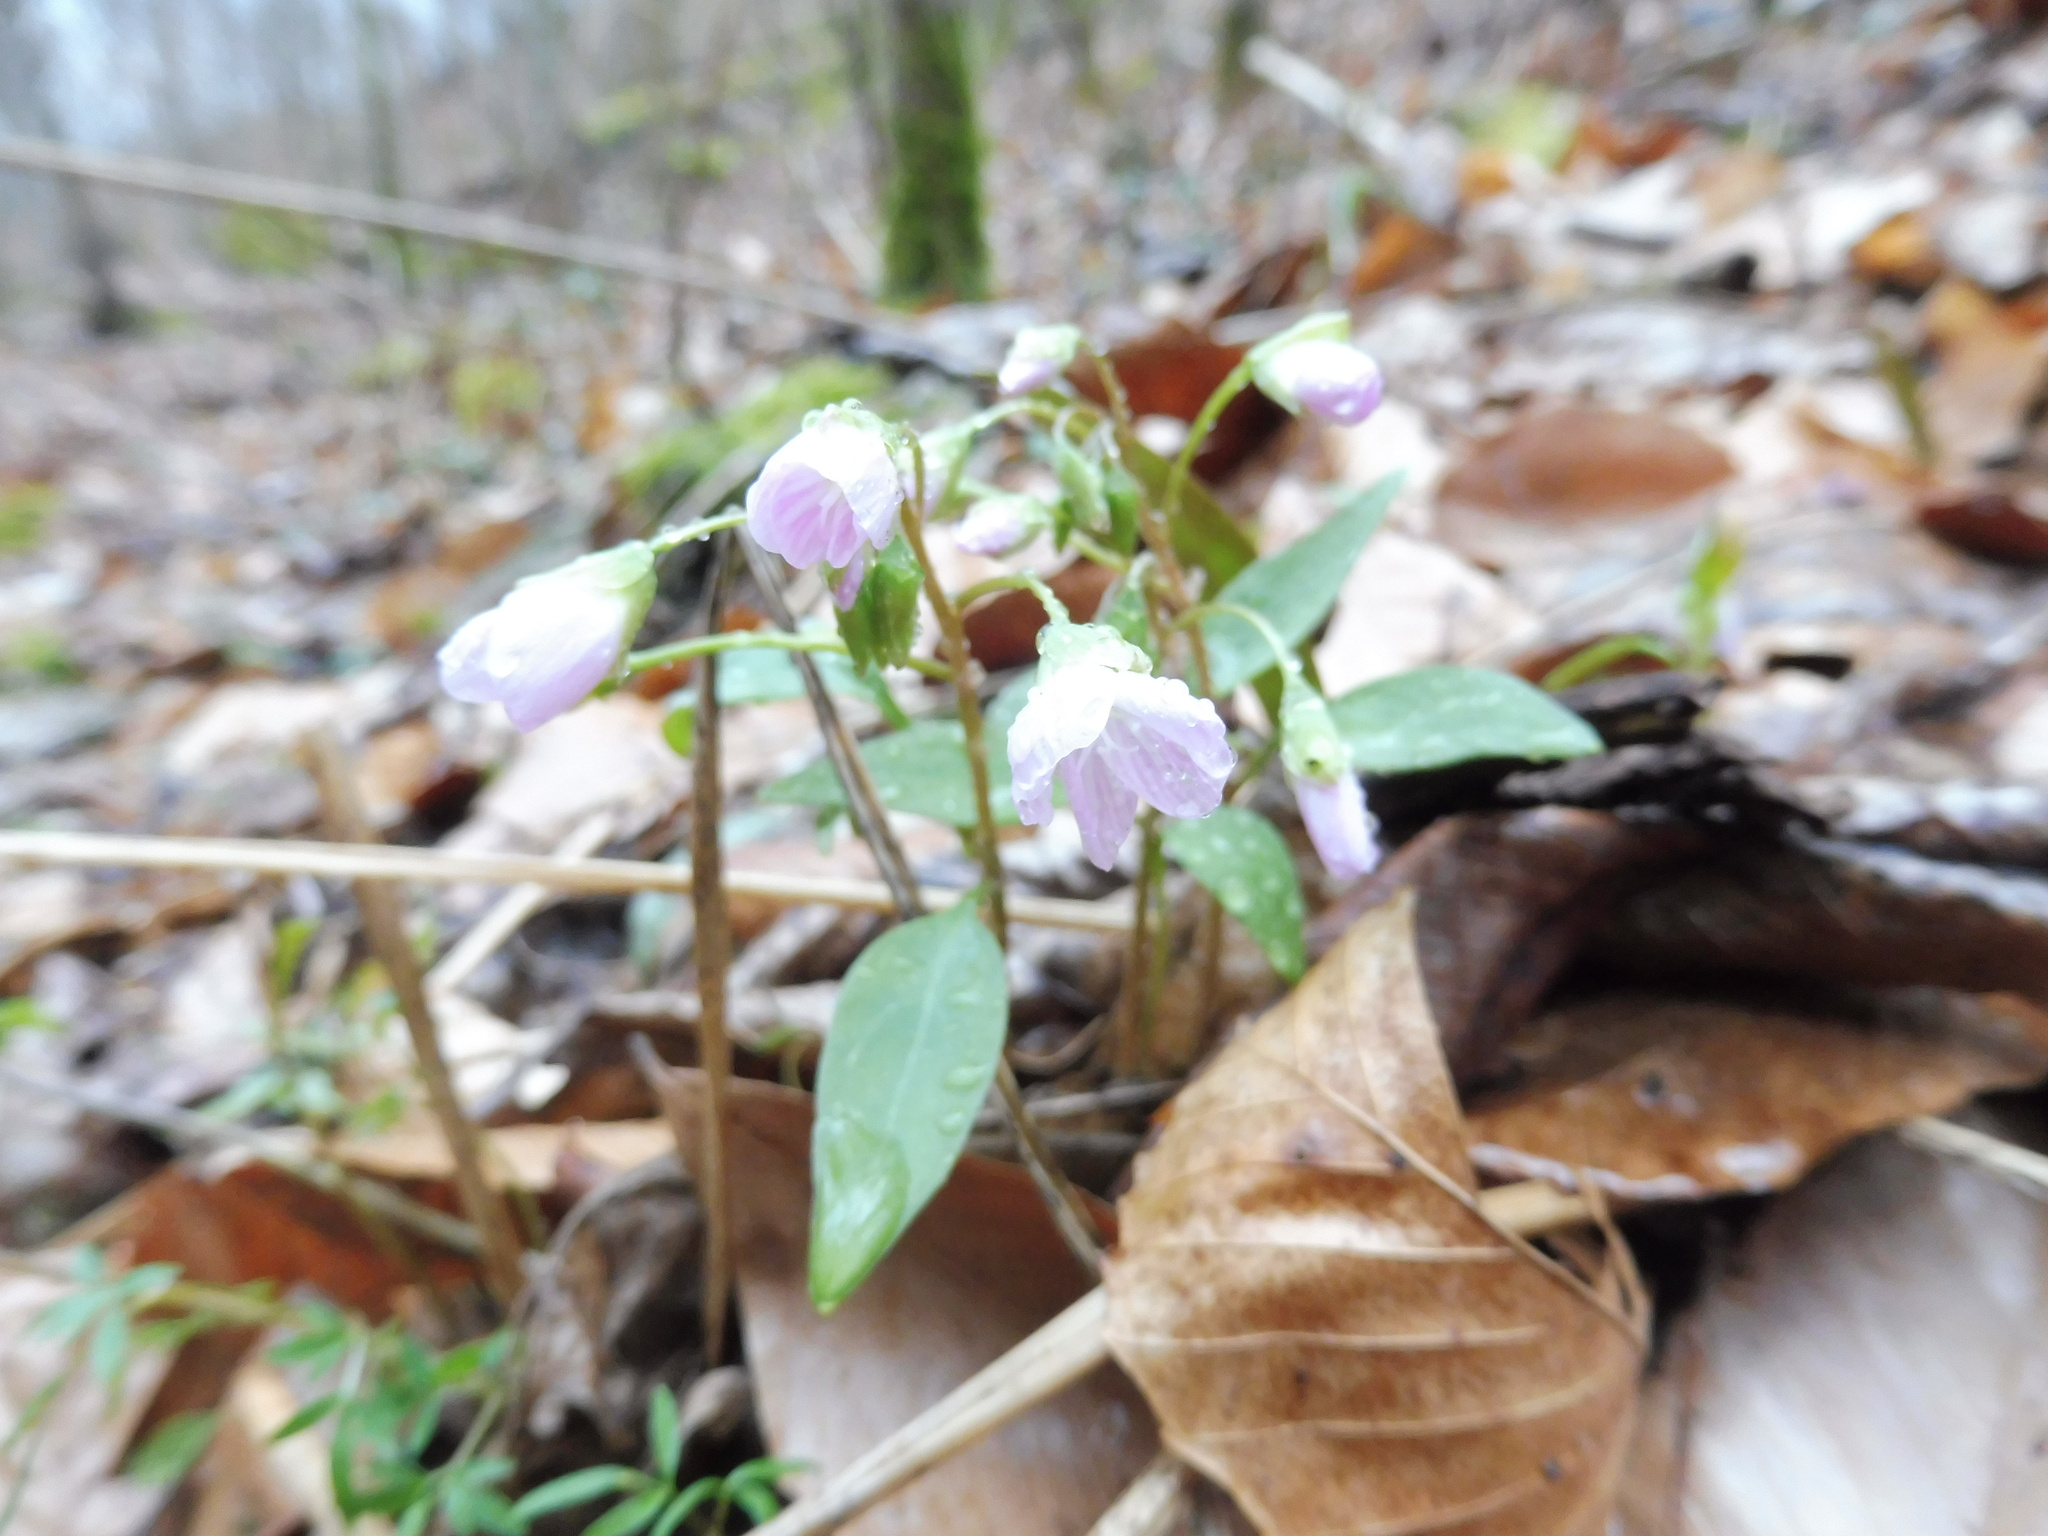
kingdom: Plantae
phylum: Tracheophyta
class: Magnoliopsida
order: Caryophyllales
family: Montiaceae
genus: Claytonia
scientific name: Claytonia caroliniana
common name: Carolina spring beauty
